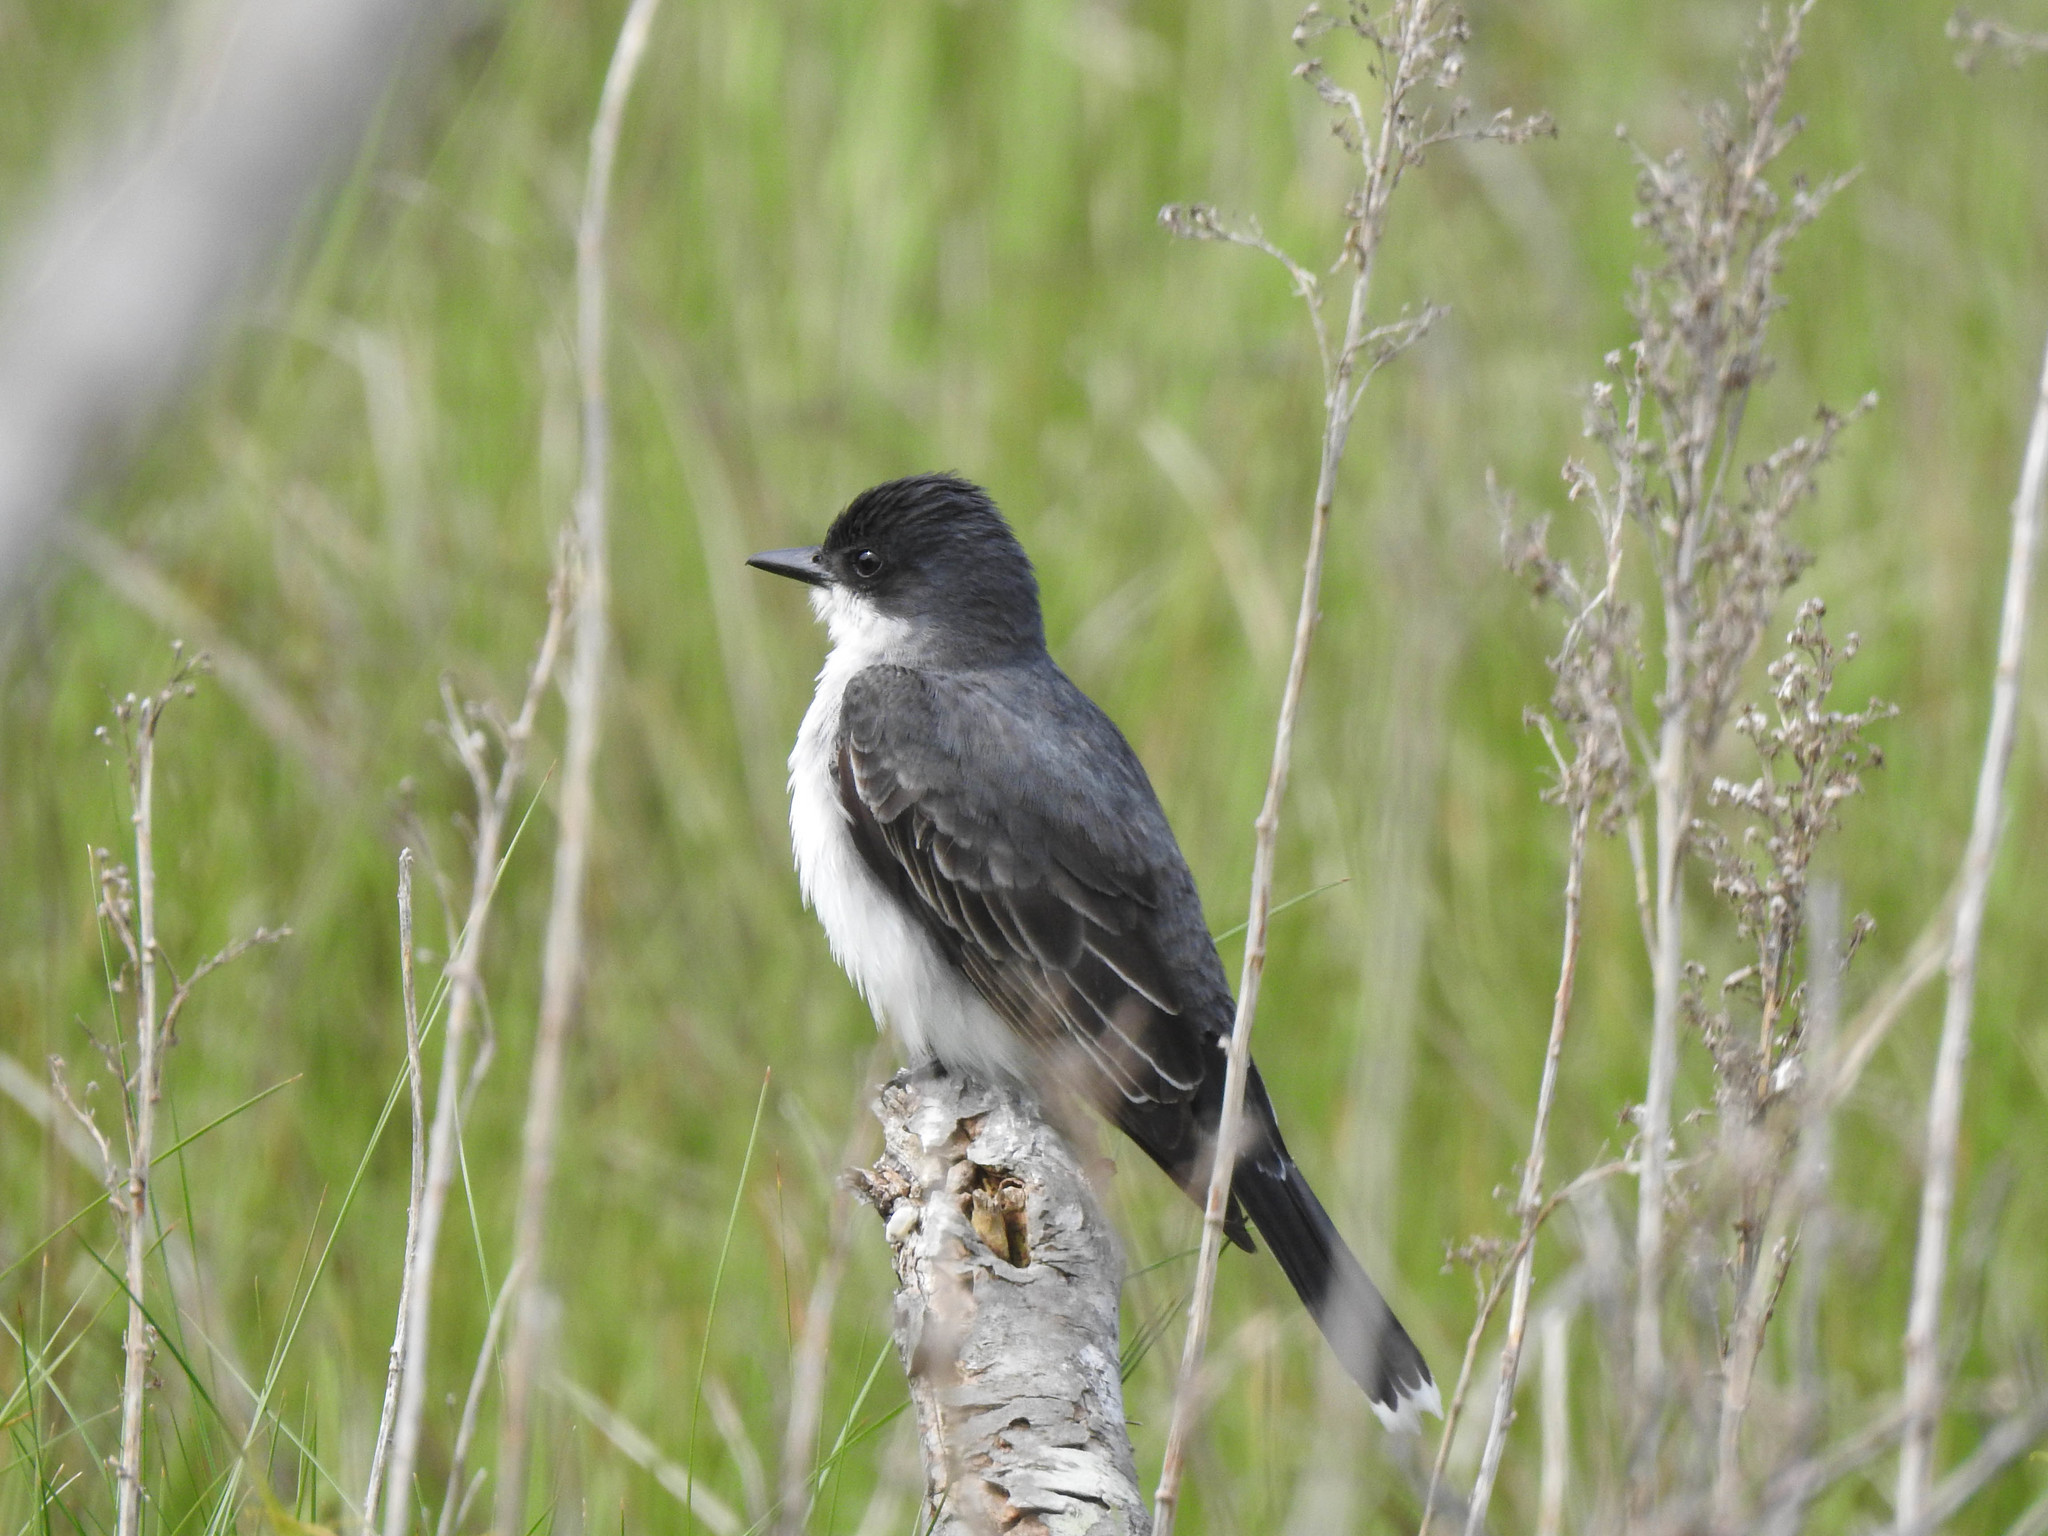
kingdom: Animalia
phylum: Chordata
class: Aves
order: Passeriformes
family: Tyrannidae
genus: Tyrannus
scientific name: Tyrannus tyrannus
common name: Eastern kingbird
